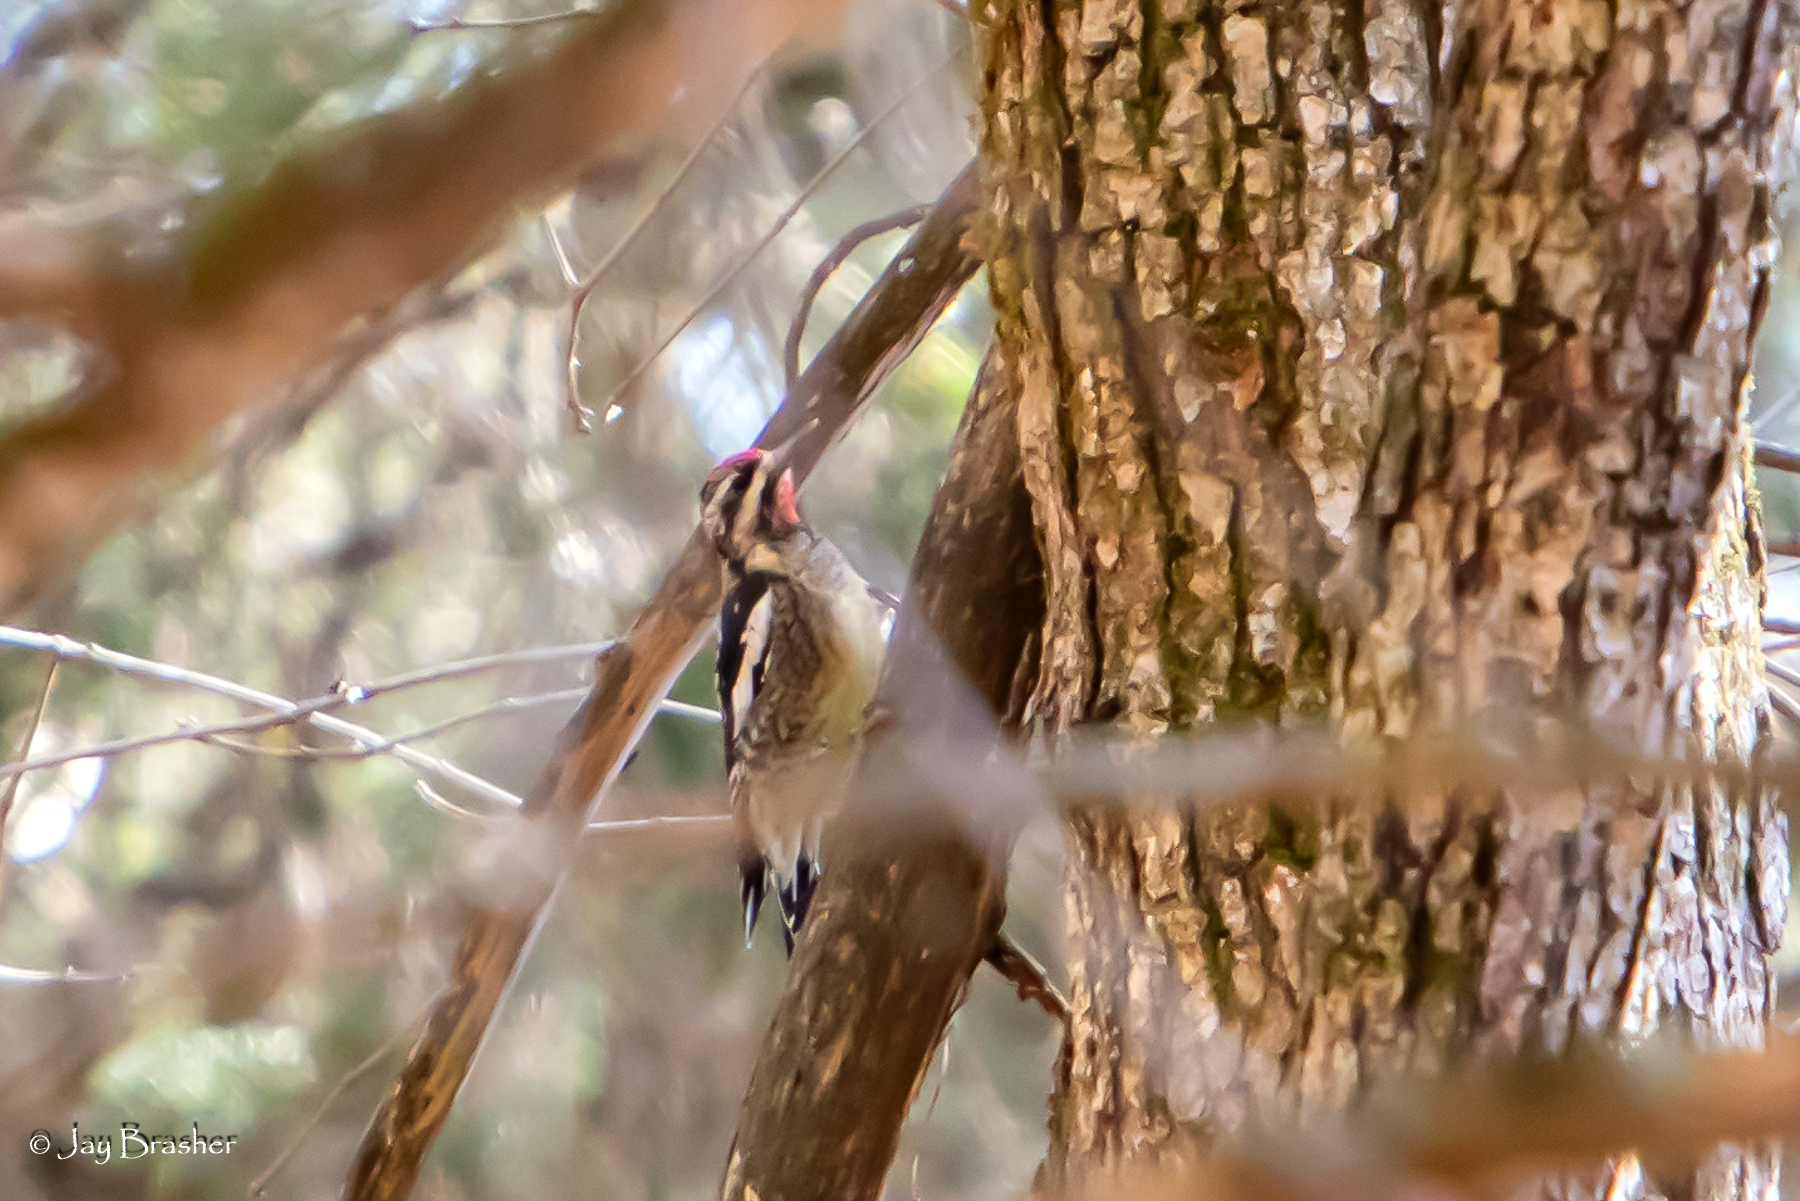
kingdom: Animalia
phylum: Chordata
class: Aves
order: Piciformes
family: Picidae
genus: Sphyrapicus
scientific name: Sphyrapicus varius
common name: Yellow-bellied sapsucker
